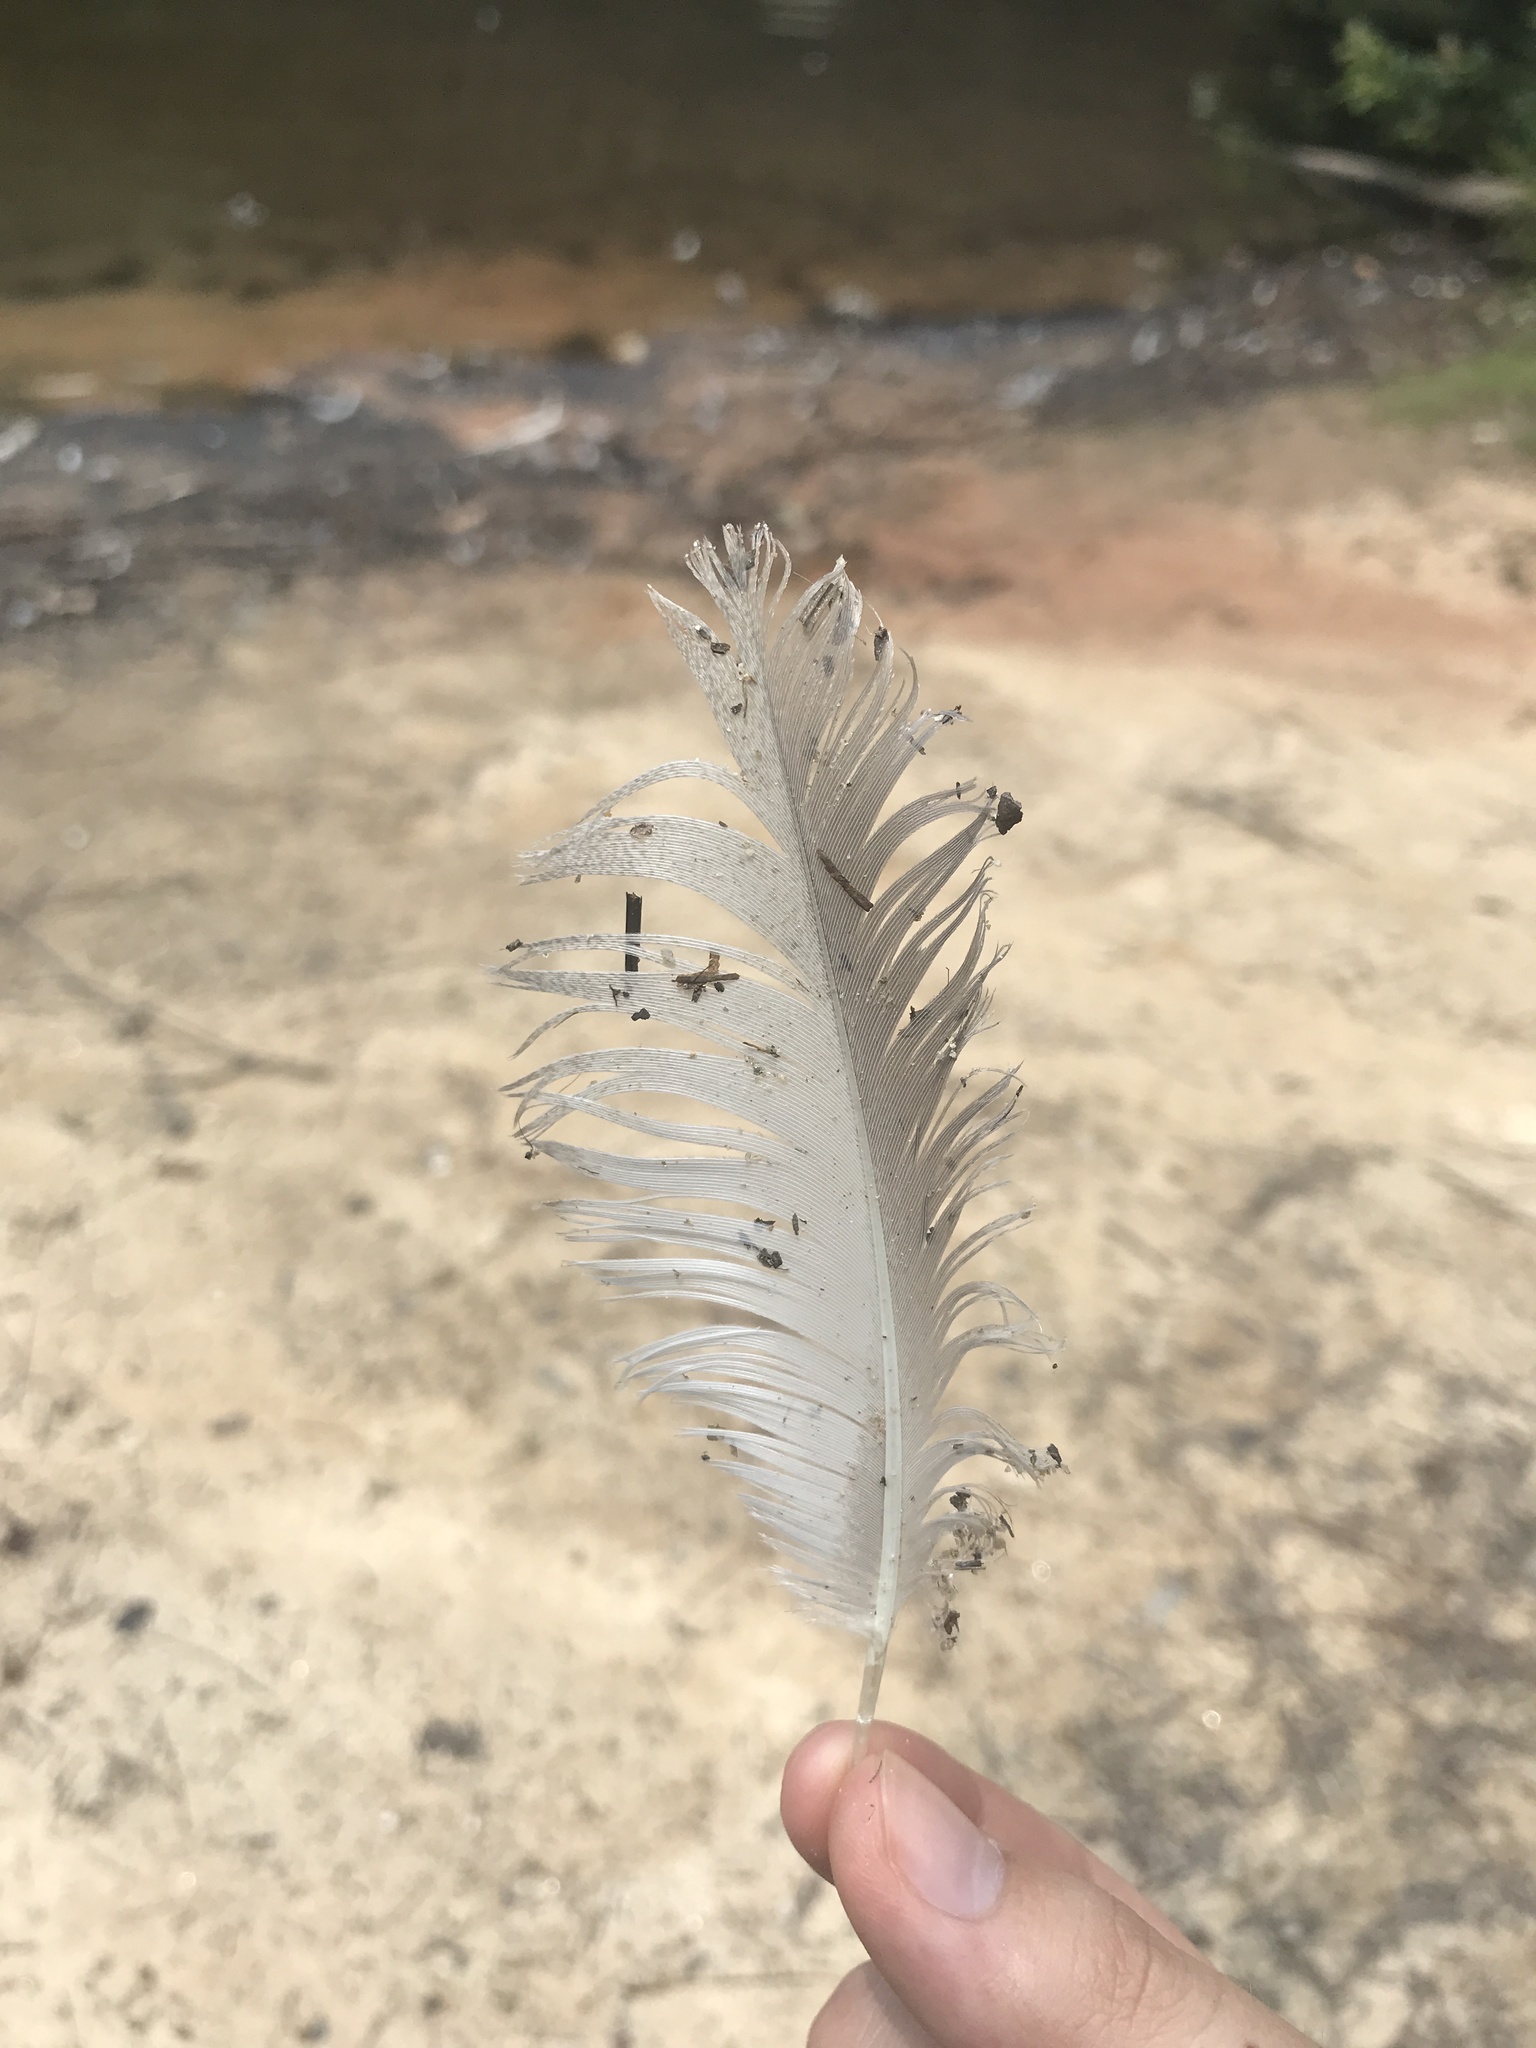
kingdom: Animalia
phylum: Chordata
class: Aves
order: Anseriformes
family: Anatidae
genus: Anas
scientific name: Anas platyrhynchos
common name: Mallard
